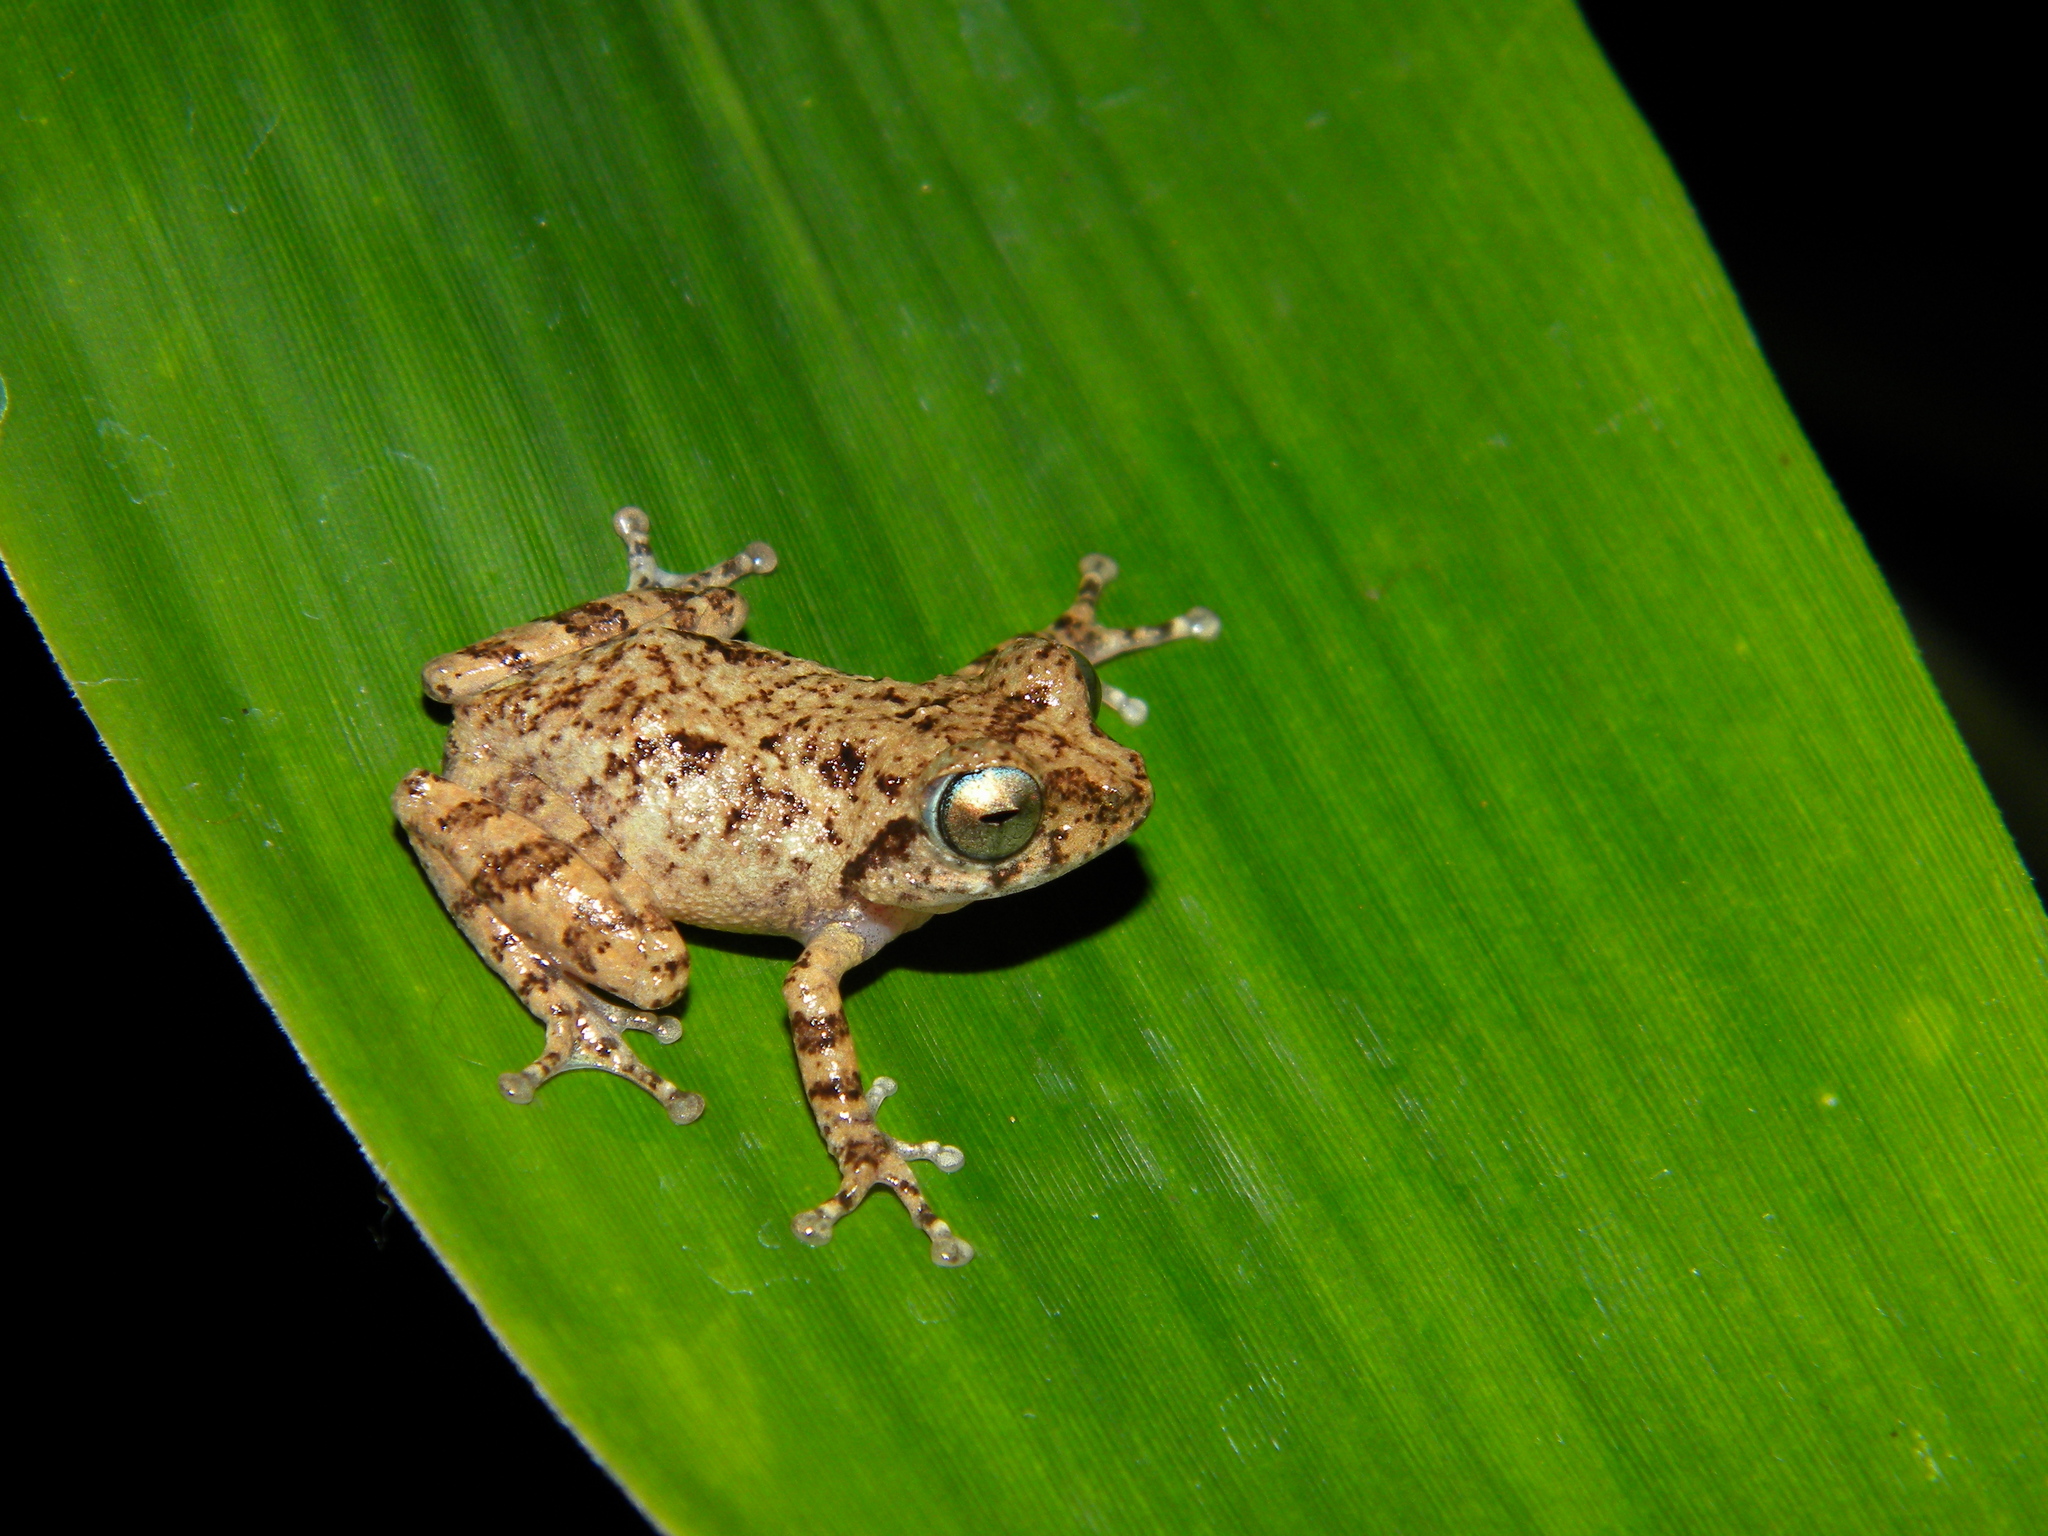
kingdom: Animalia
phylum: Chordata
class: Amphibia
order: Anura
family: Rhacophoridae
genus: Raorchestes
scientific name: Raorchestes graminirupes
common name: Ponmudi bush frog
